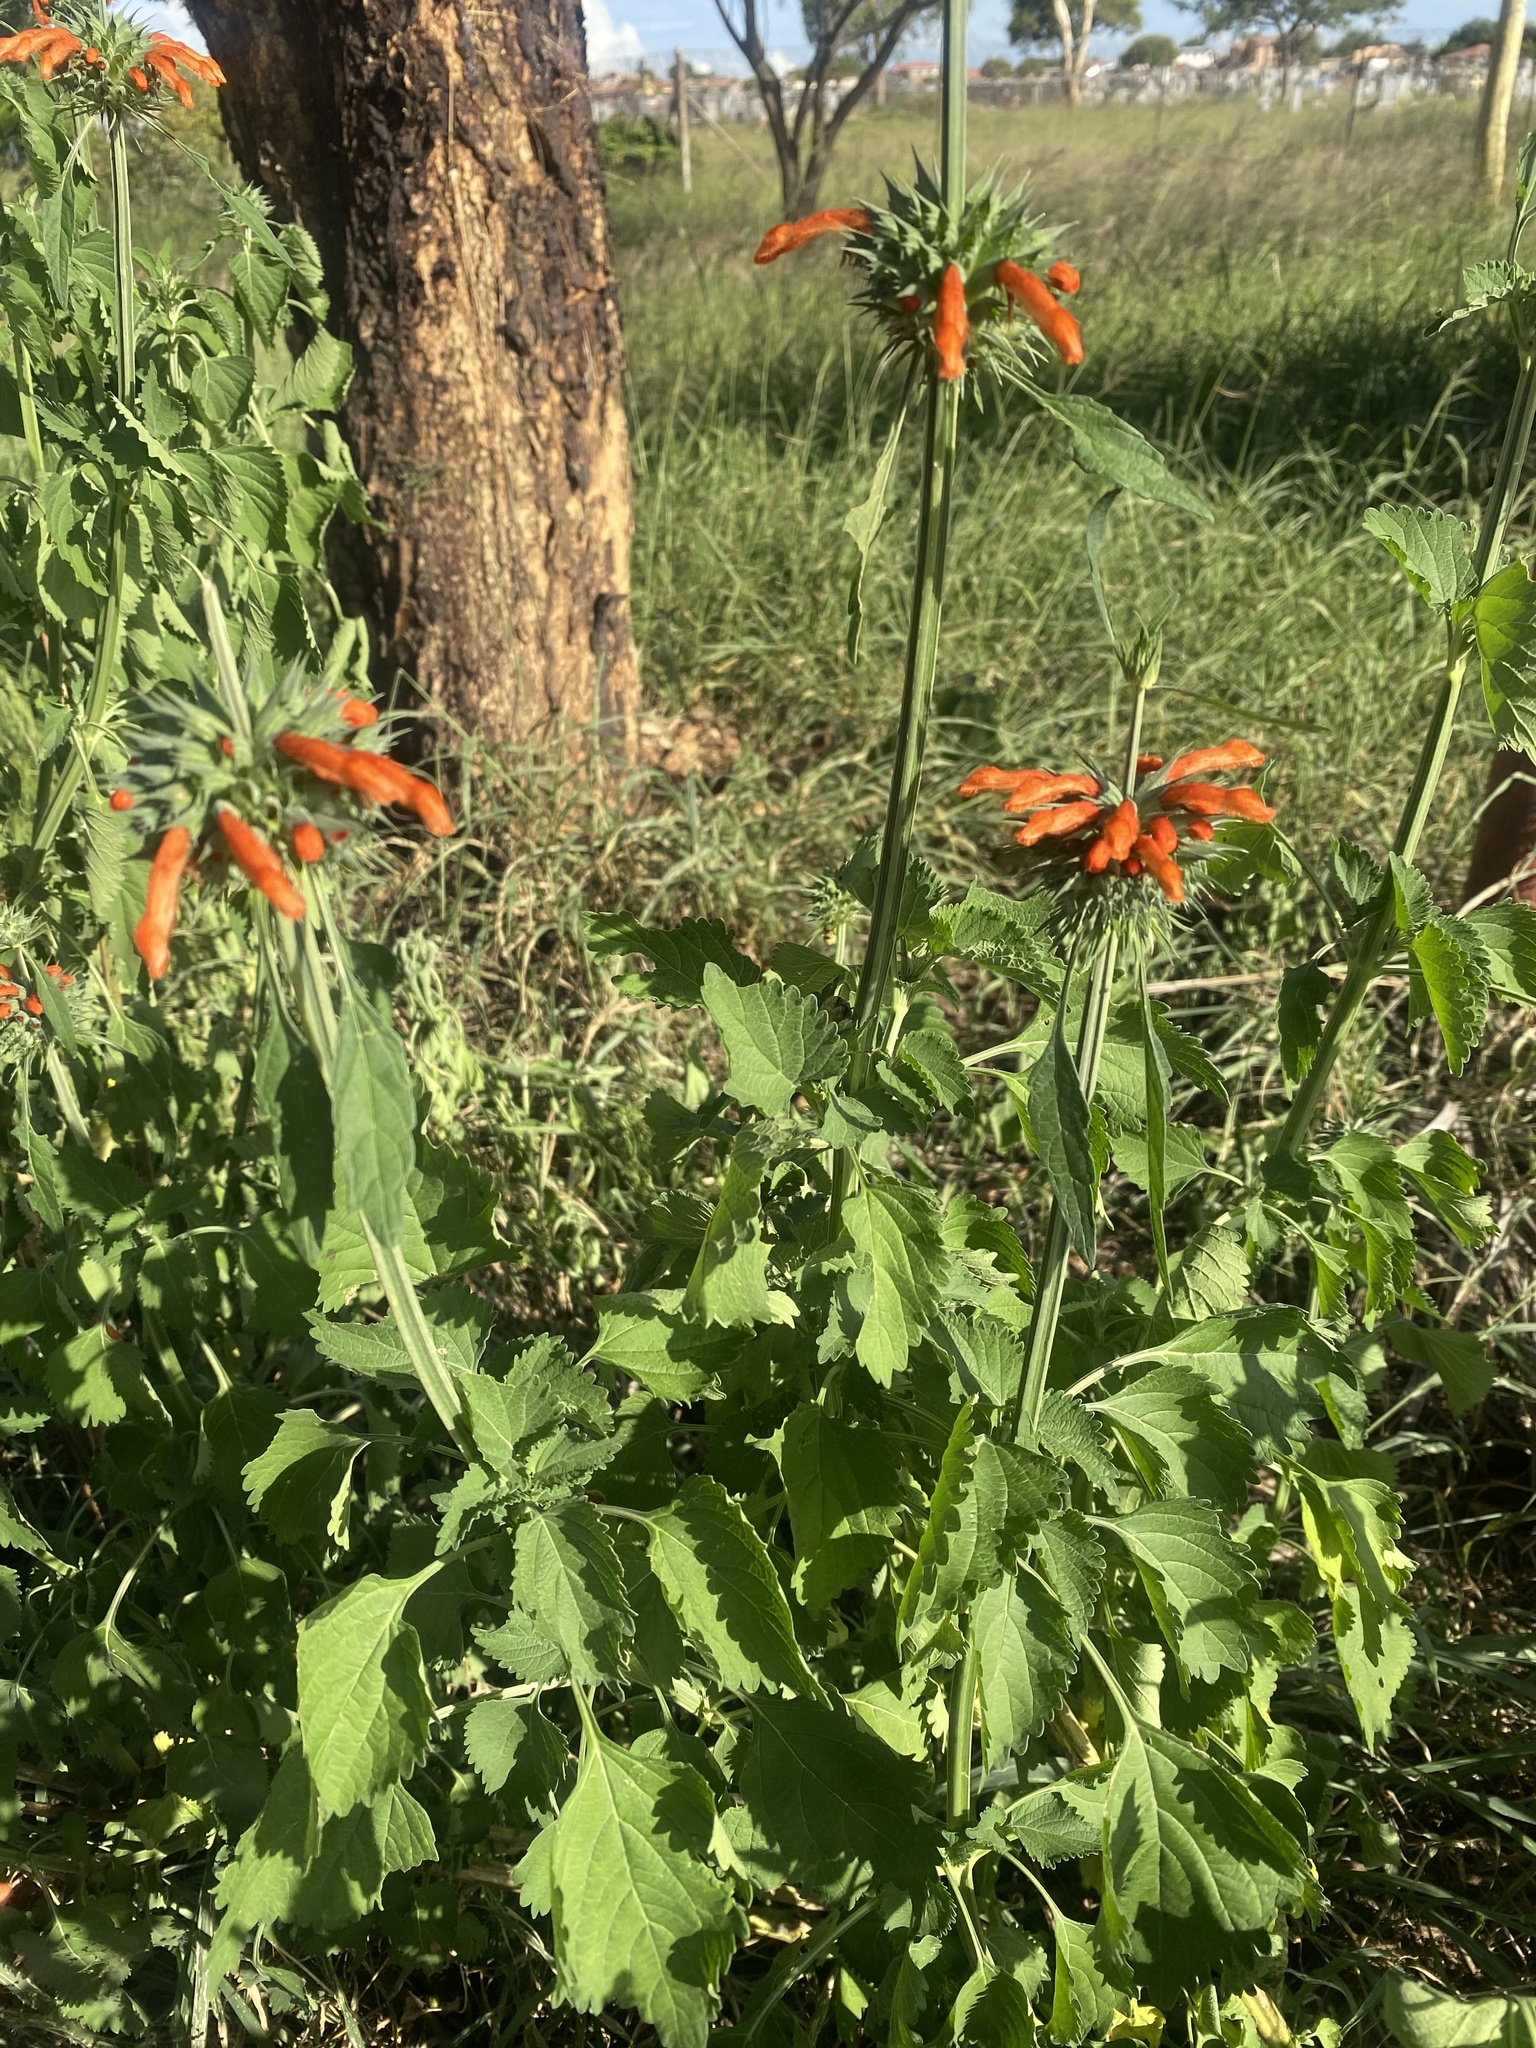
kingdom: Plantae
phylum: Tracheophyta
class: Magnoliopsida
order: Lamiales
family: Lamiaceae
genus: Leonotis
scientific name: Leonotis nepetifolia
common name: Christmas candlestick
